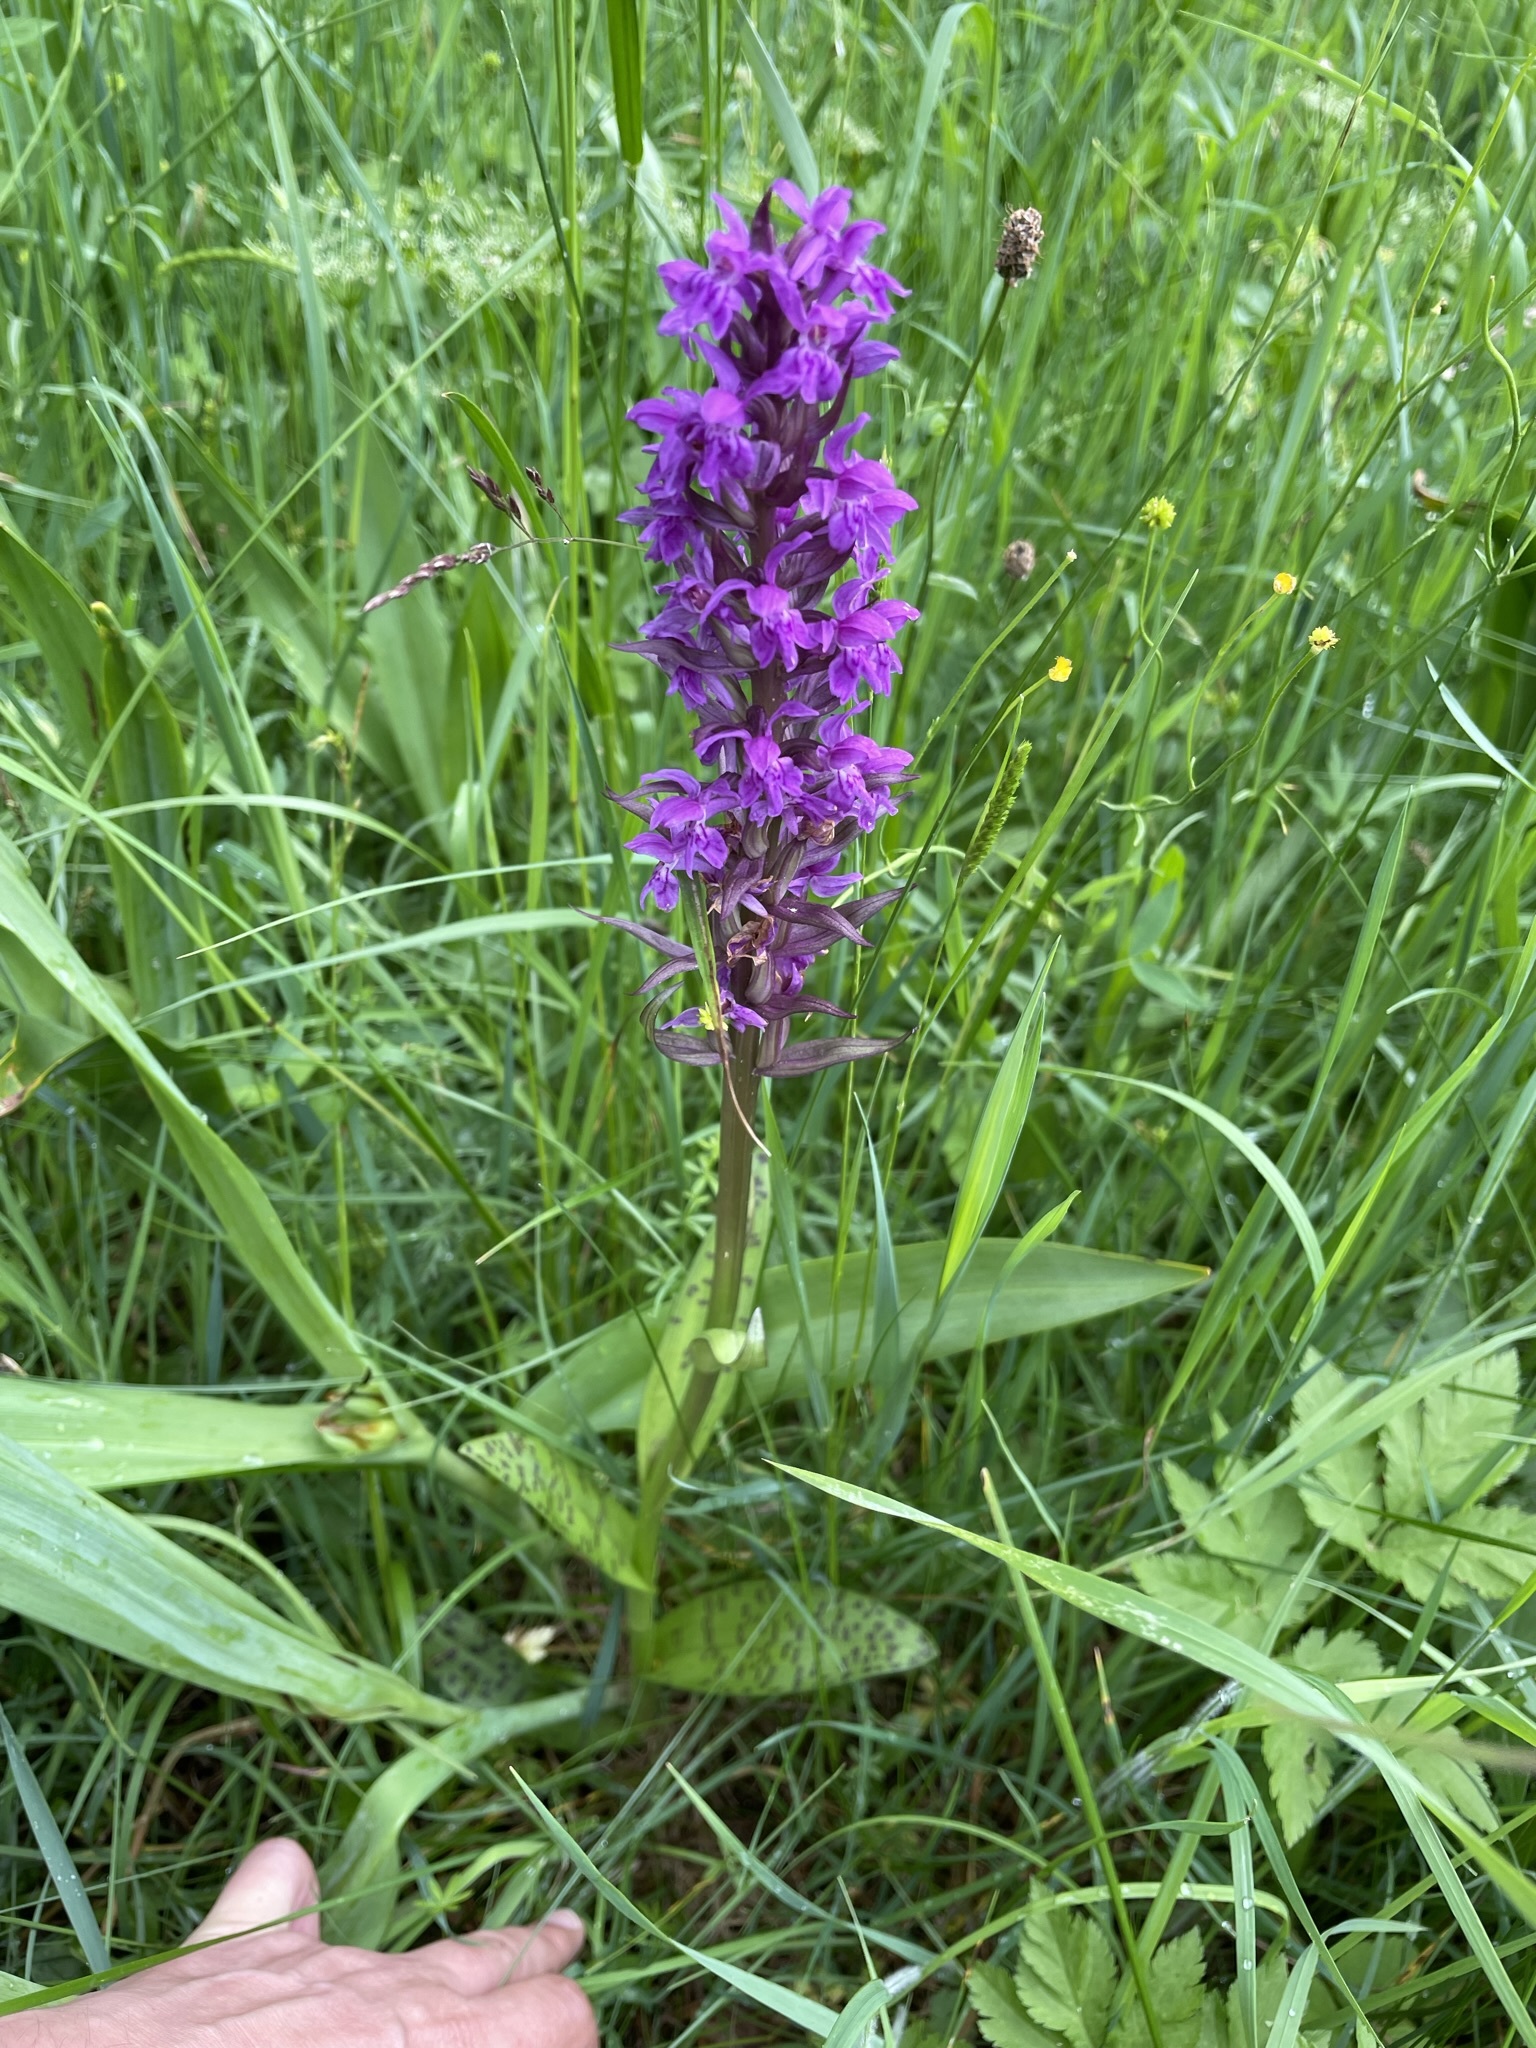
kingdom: Plantae
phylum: Tracheophyta
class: Liliopsida
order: Asparagales
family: Orchidaceae
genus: Dactylorhiza
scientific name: Dactylorhiza majalis
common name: Marsh orchid
